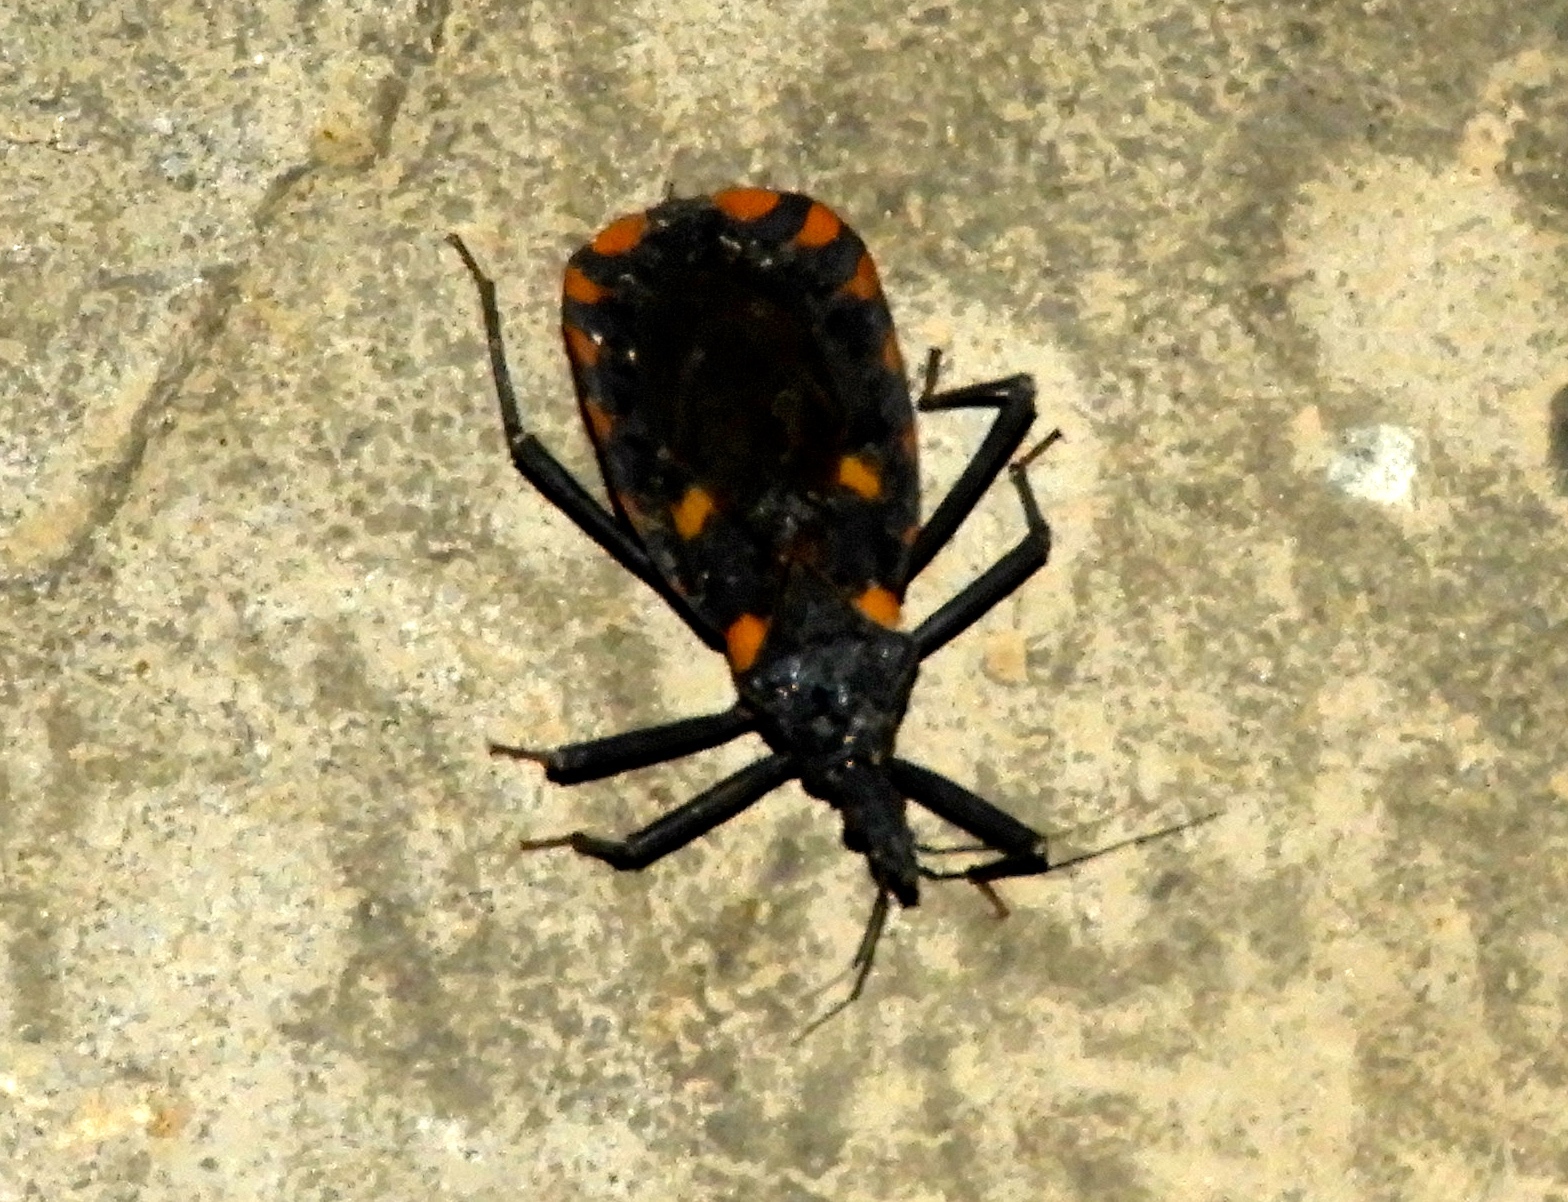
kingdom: Animalia
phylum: Arthropoda
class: Insecta
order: Hemiptera
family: Reduviidae
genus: Meccus
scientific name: Meccus longipennis
